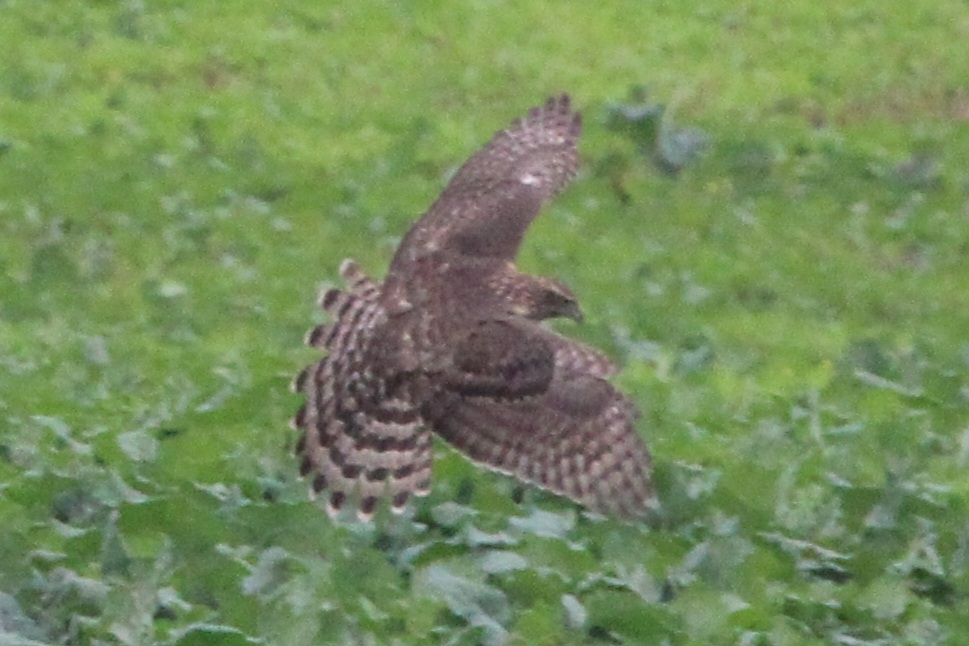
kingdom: Animalia
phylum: Chordata
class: Aves
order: Accipitriformes
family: Accipitridae
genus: Accipiter
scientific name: Accipiter gentilis
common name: Northern goshawk
